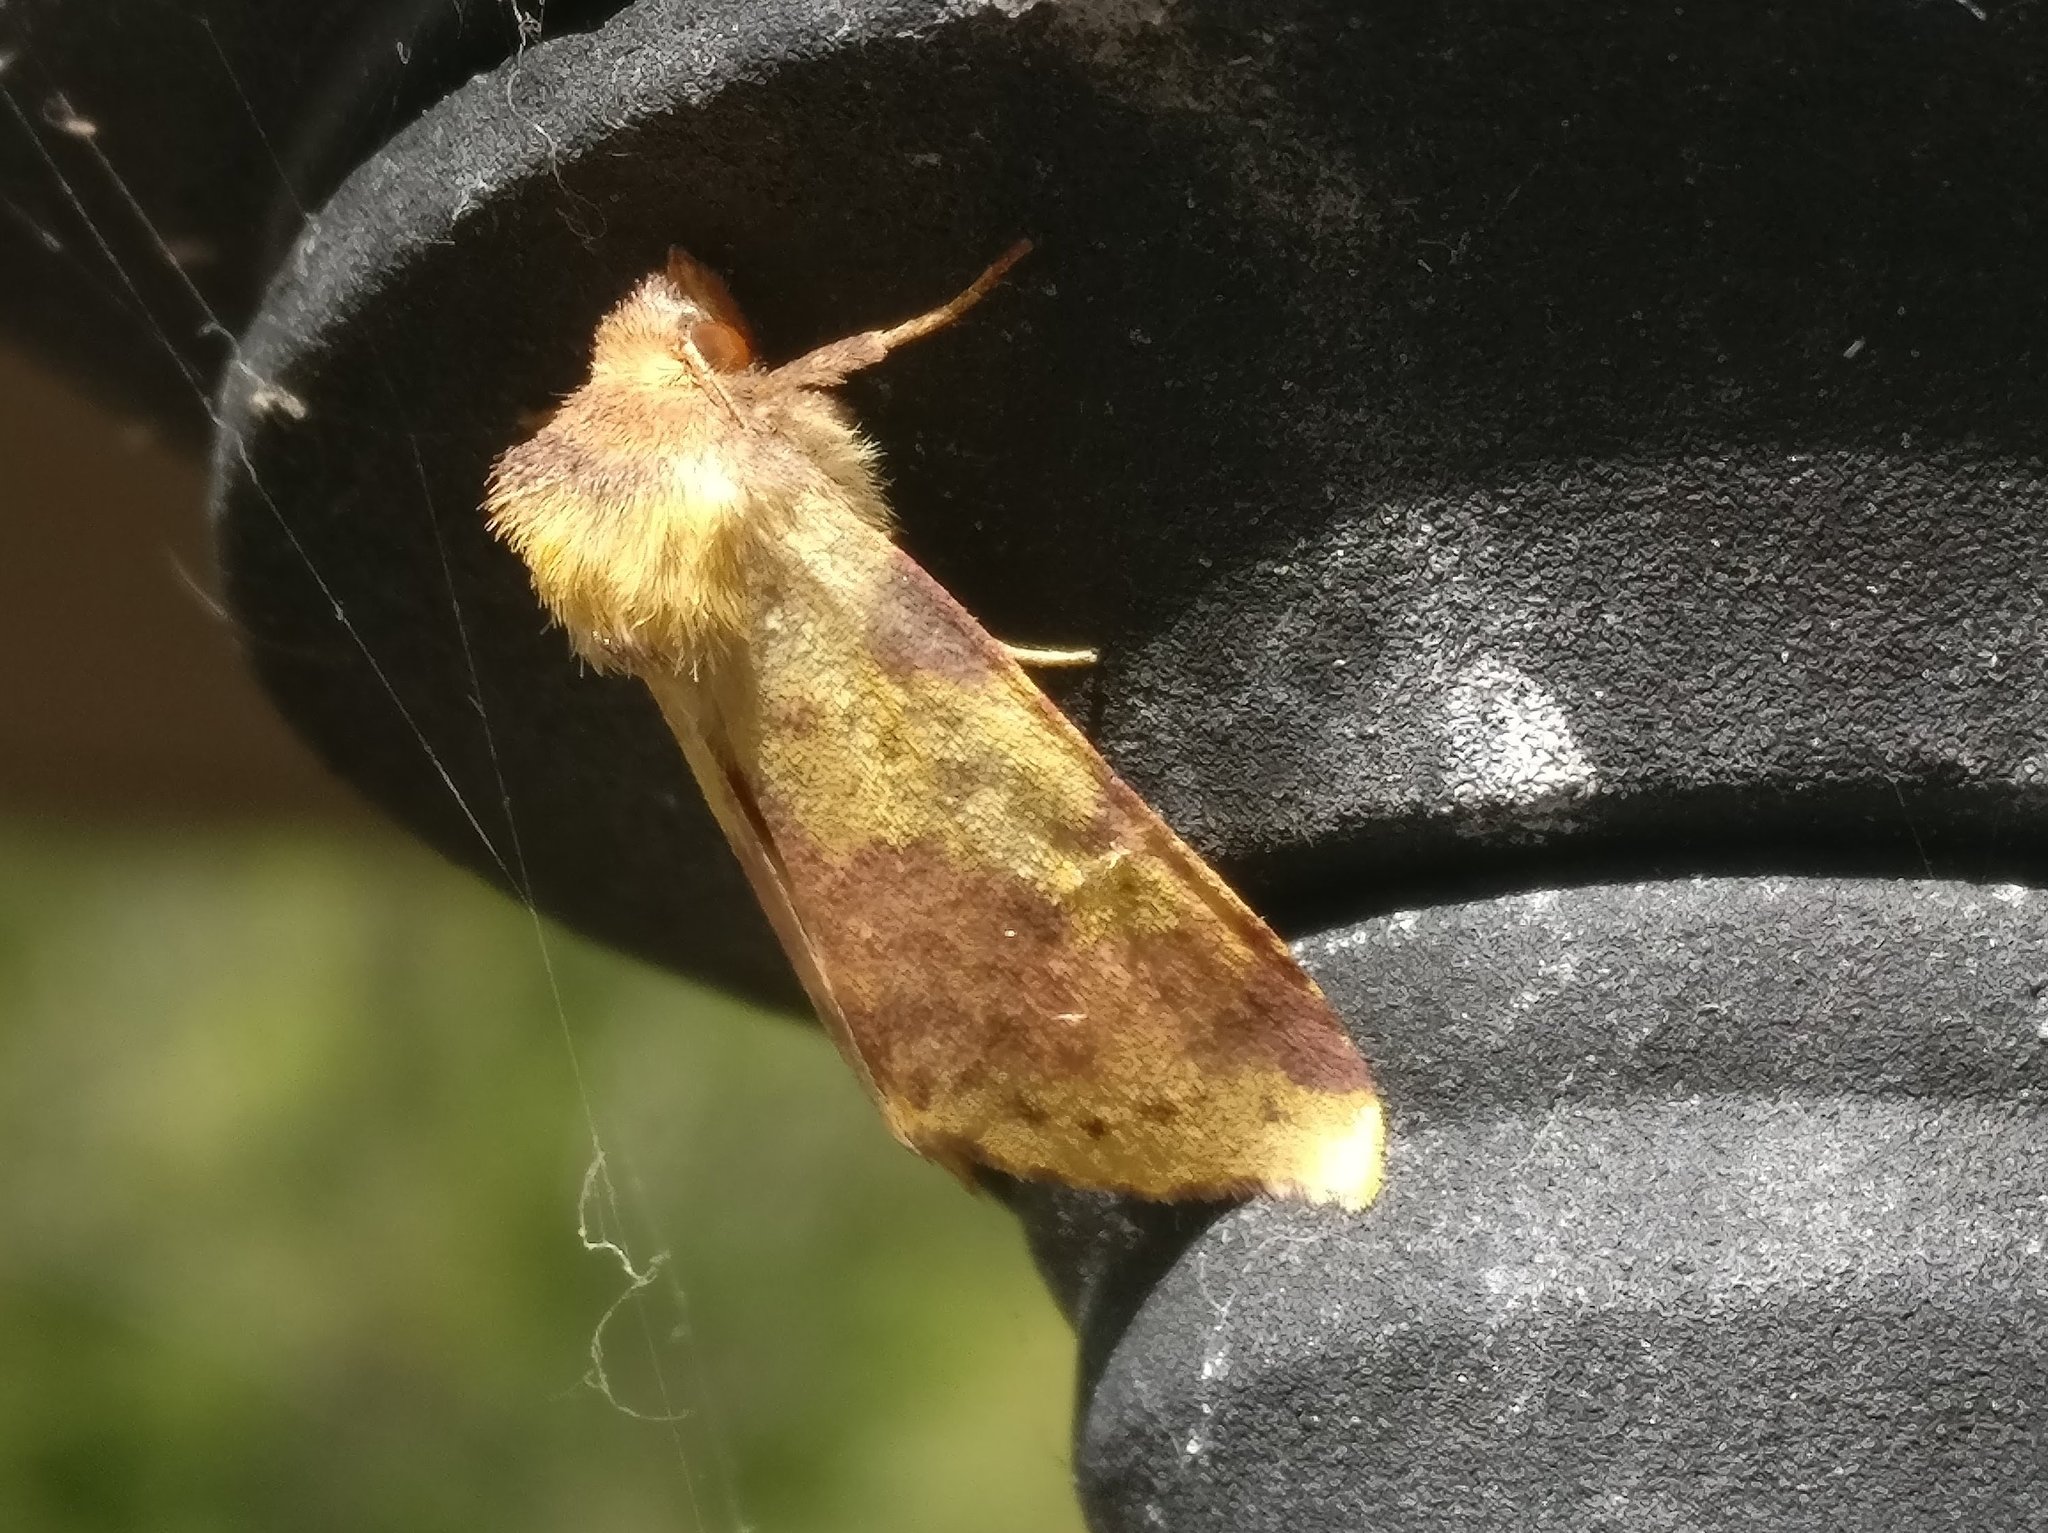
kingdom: Animalia
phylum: Arthropoda
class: Insecta
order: Lepidoptera
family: Noctuidae
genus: Xanthia
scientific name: Xanthia togata
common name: Pink-barred sallow
